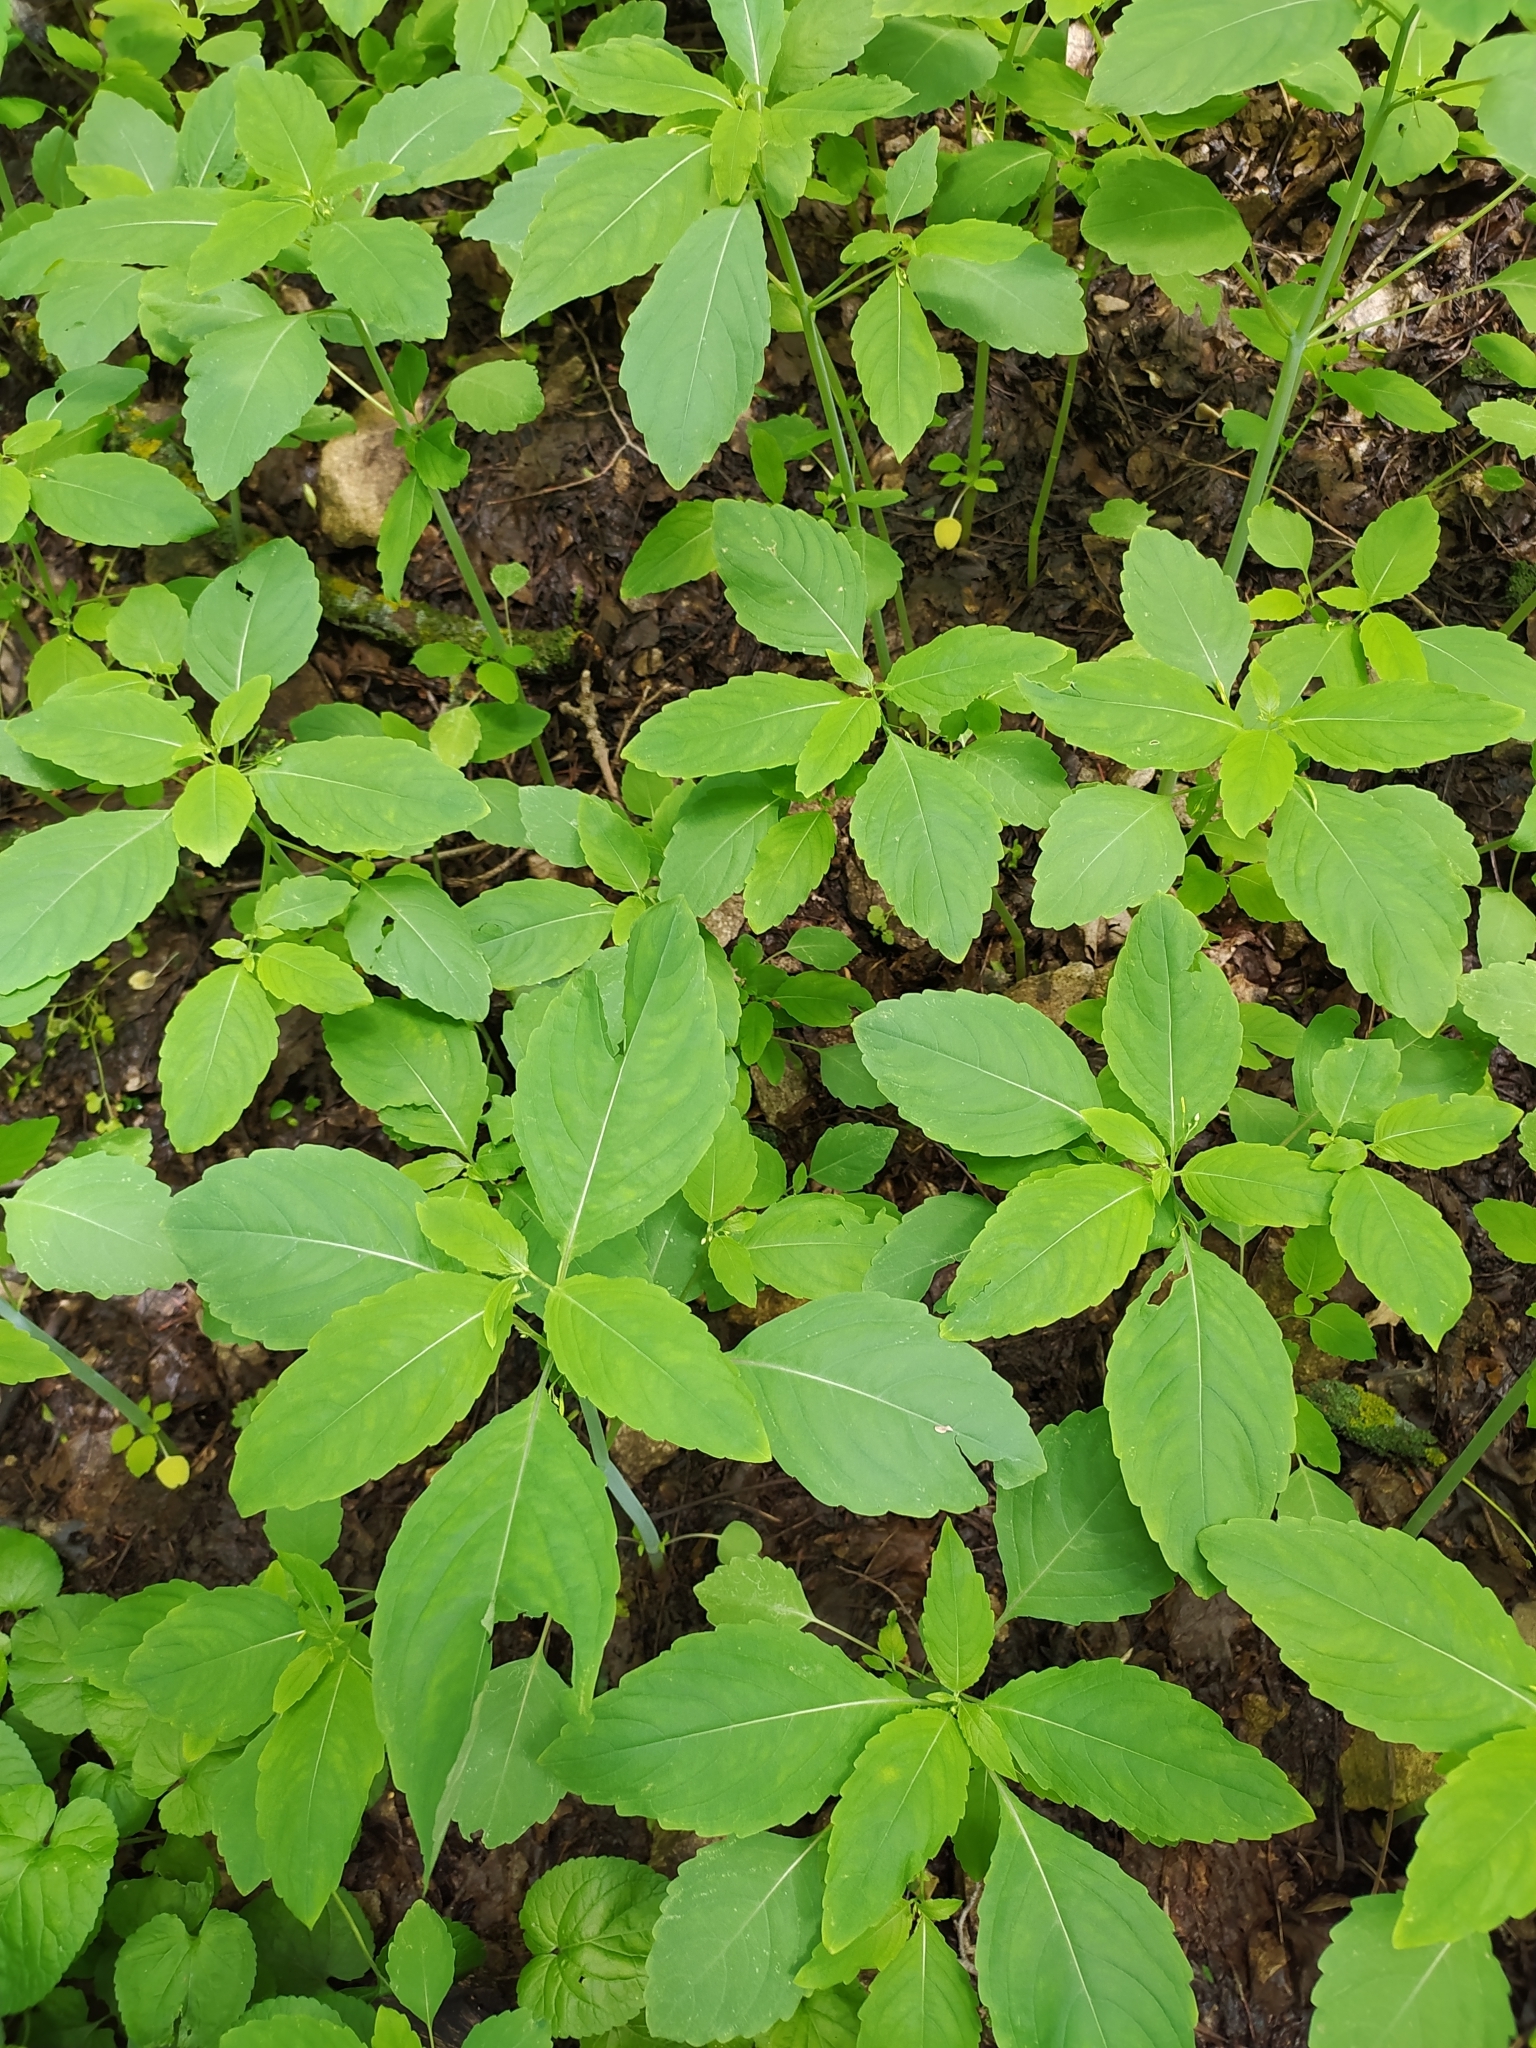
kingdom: Plantae
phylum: Tracheophyta
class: Magnoliopsida
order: Ericales
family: Balsaminaceae
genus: Impatiens
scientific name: Impatiens noli-tangere
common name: Touch-me-not balsam
